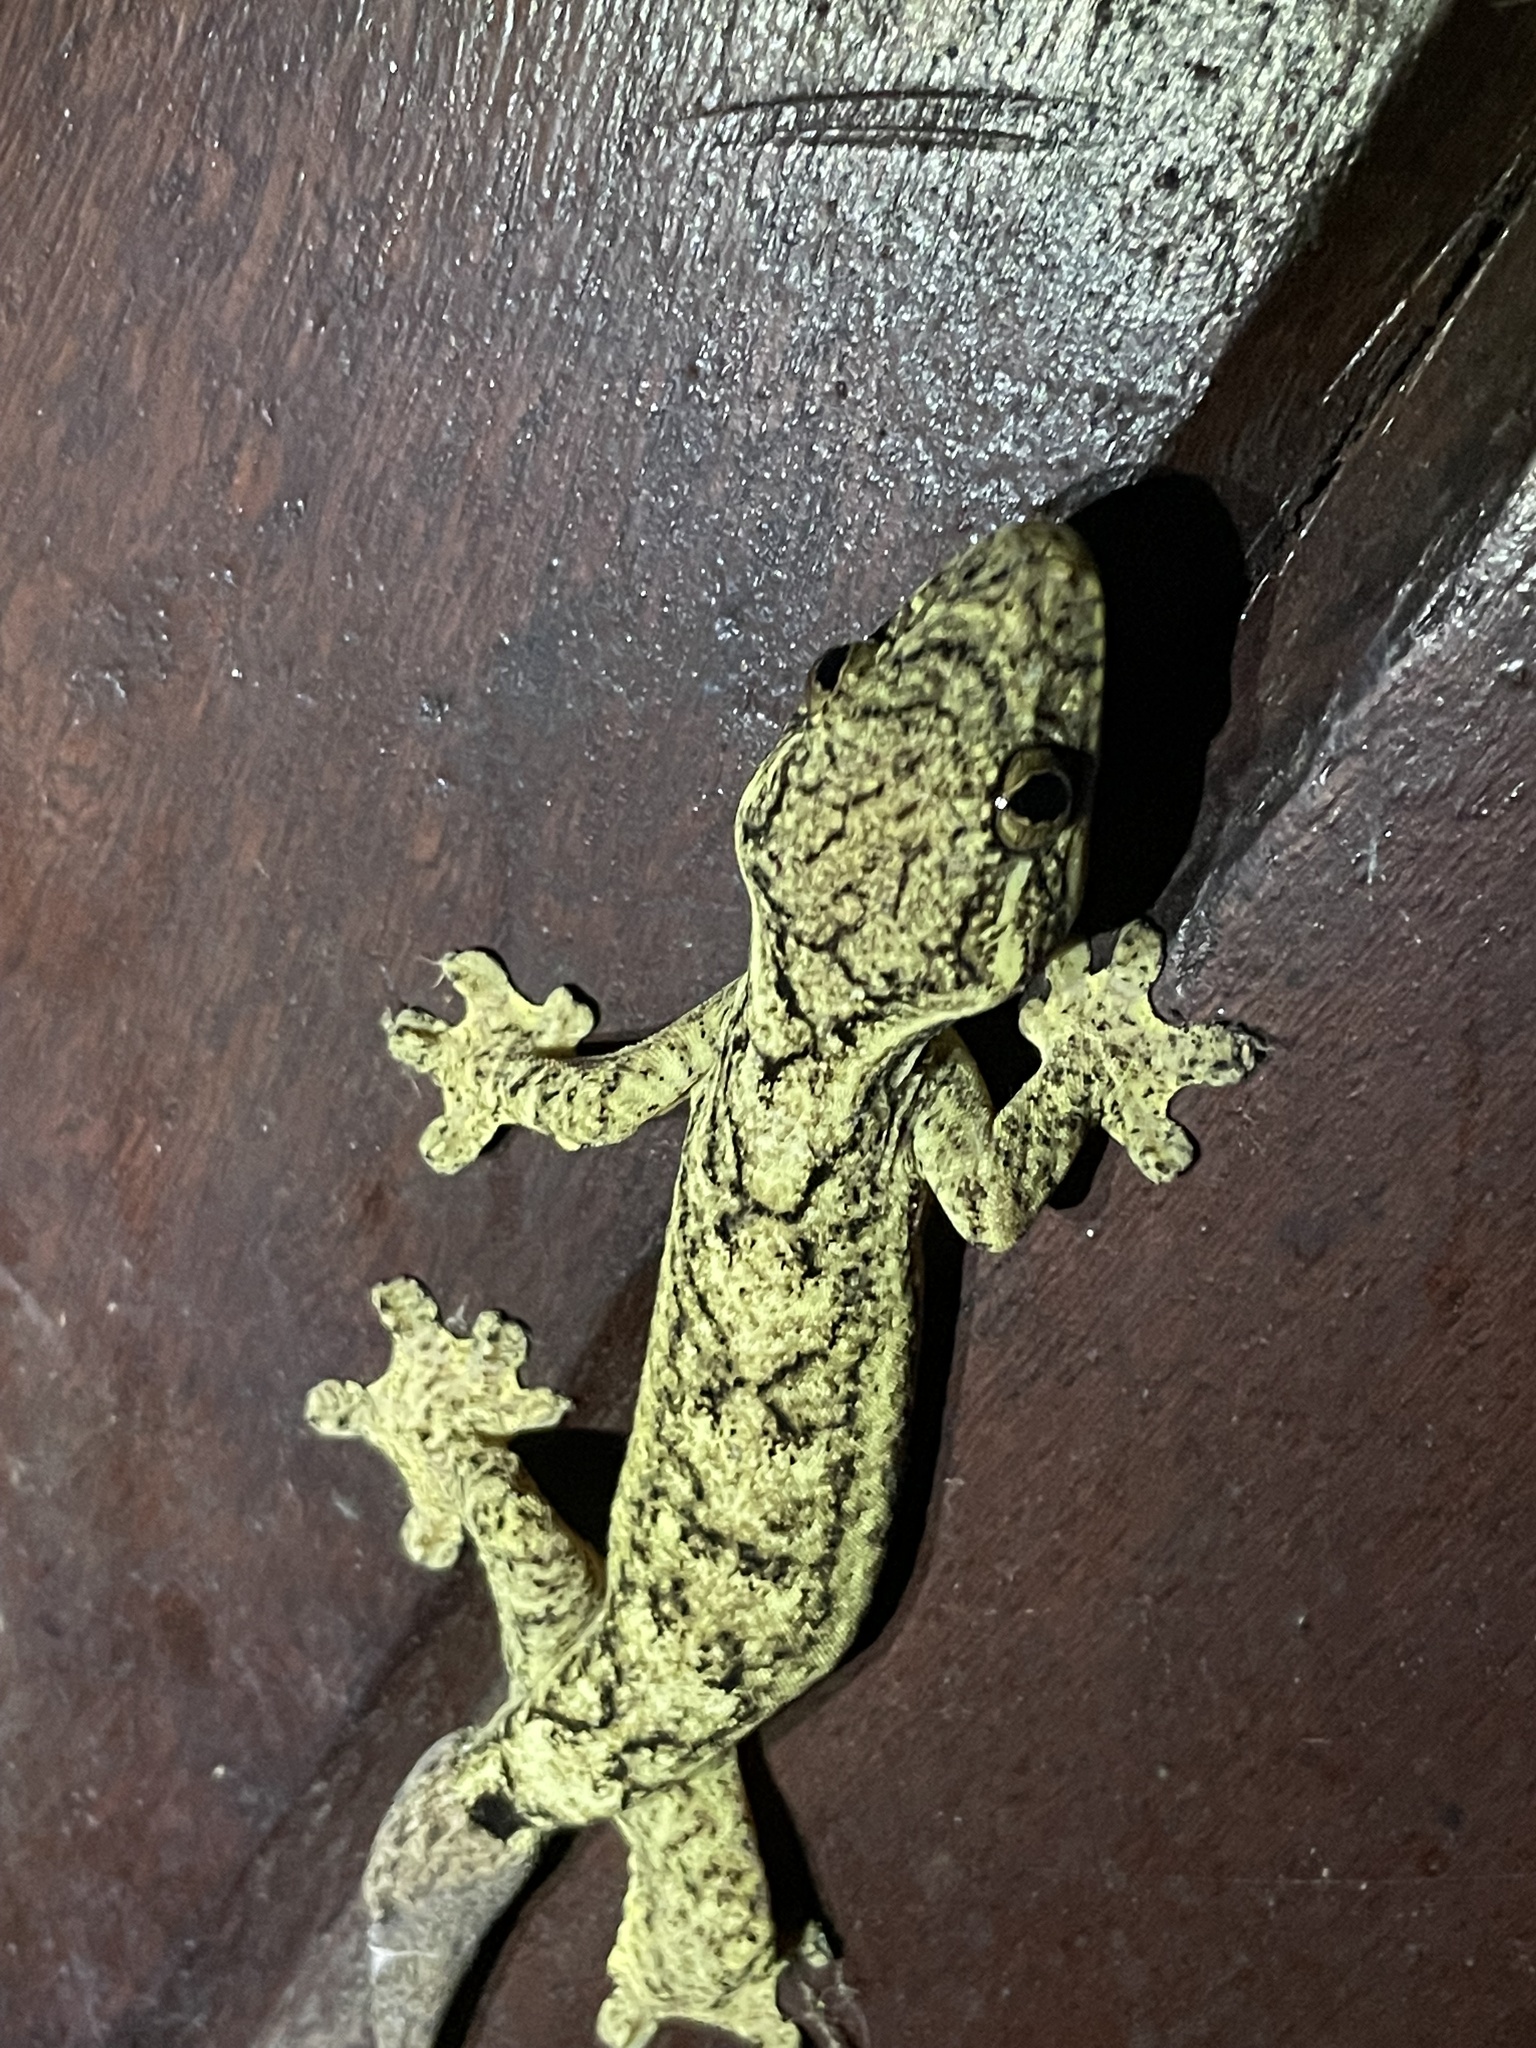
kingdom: Animalia
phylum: Chordata
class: Squamata
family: Phyllodactylidae
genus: Thecadactylus
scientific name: Thecadactylus solimoensis
